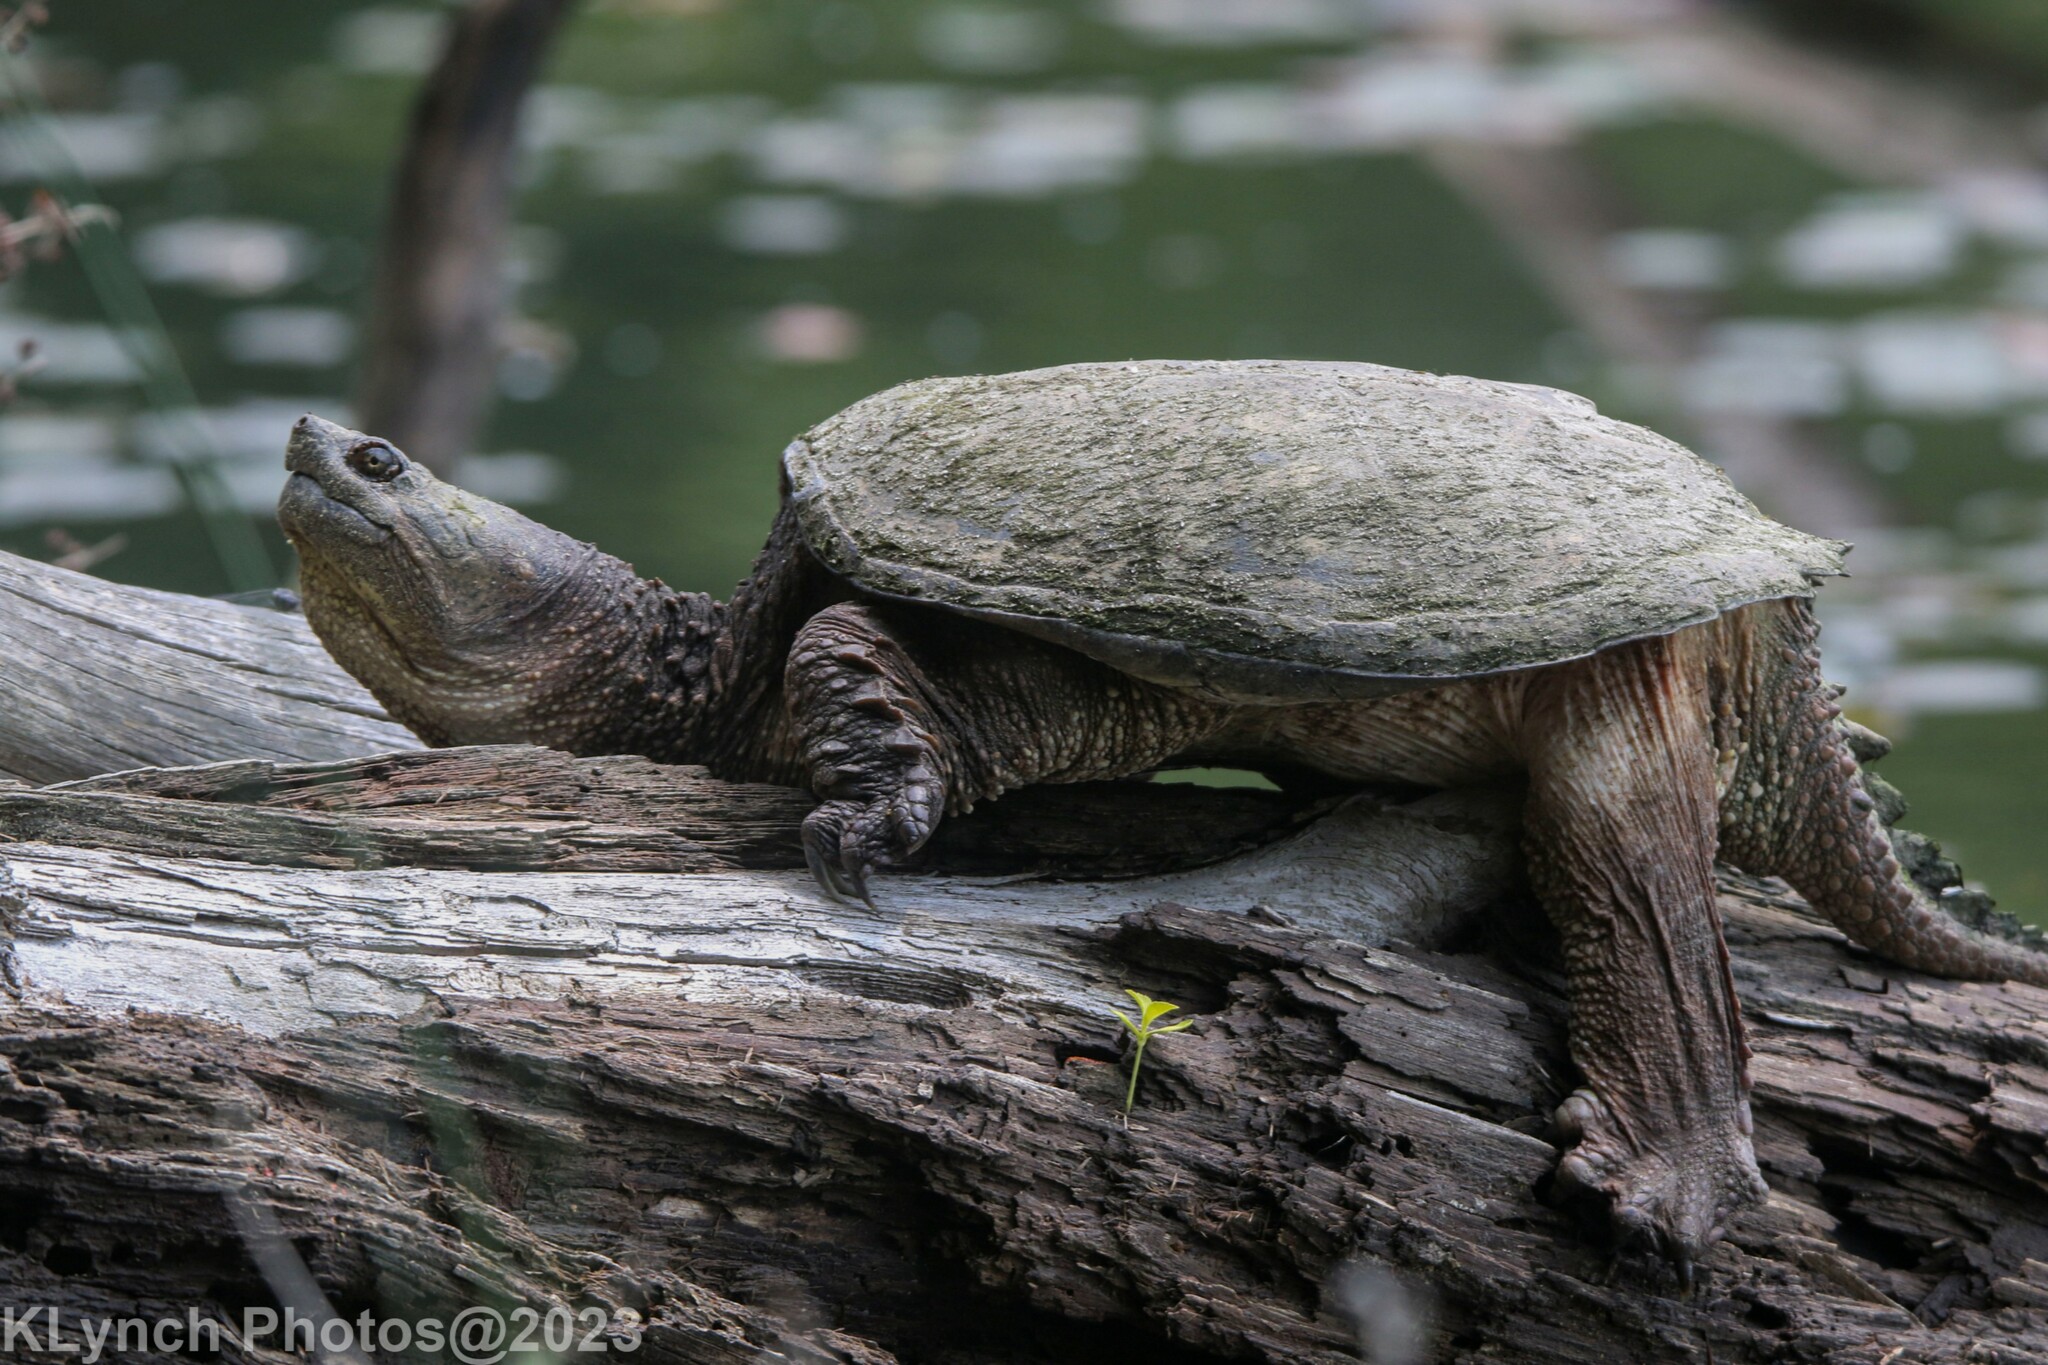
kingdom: Animalia
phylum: Chordata
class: Testudines
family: Chelydridae
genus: Chelydra
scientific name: Chelydra serpentina
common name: Common snapping turtle
